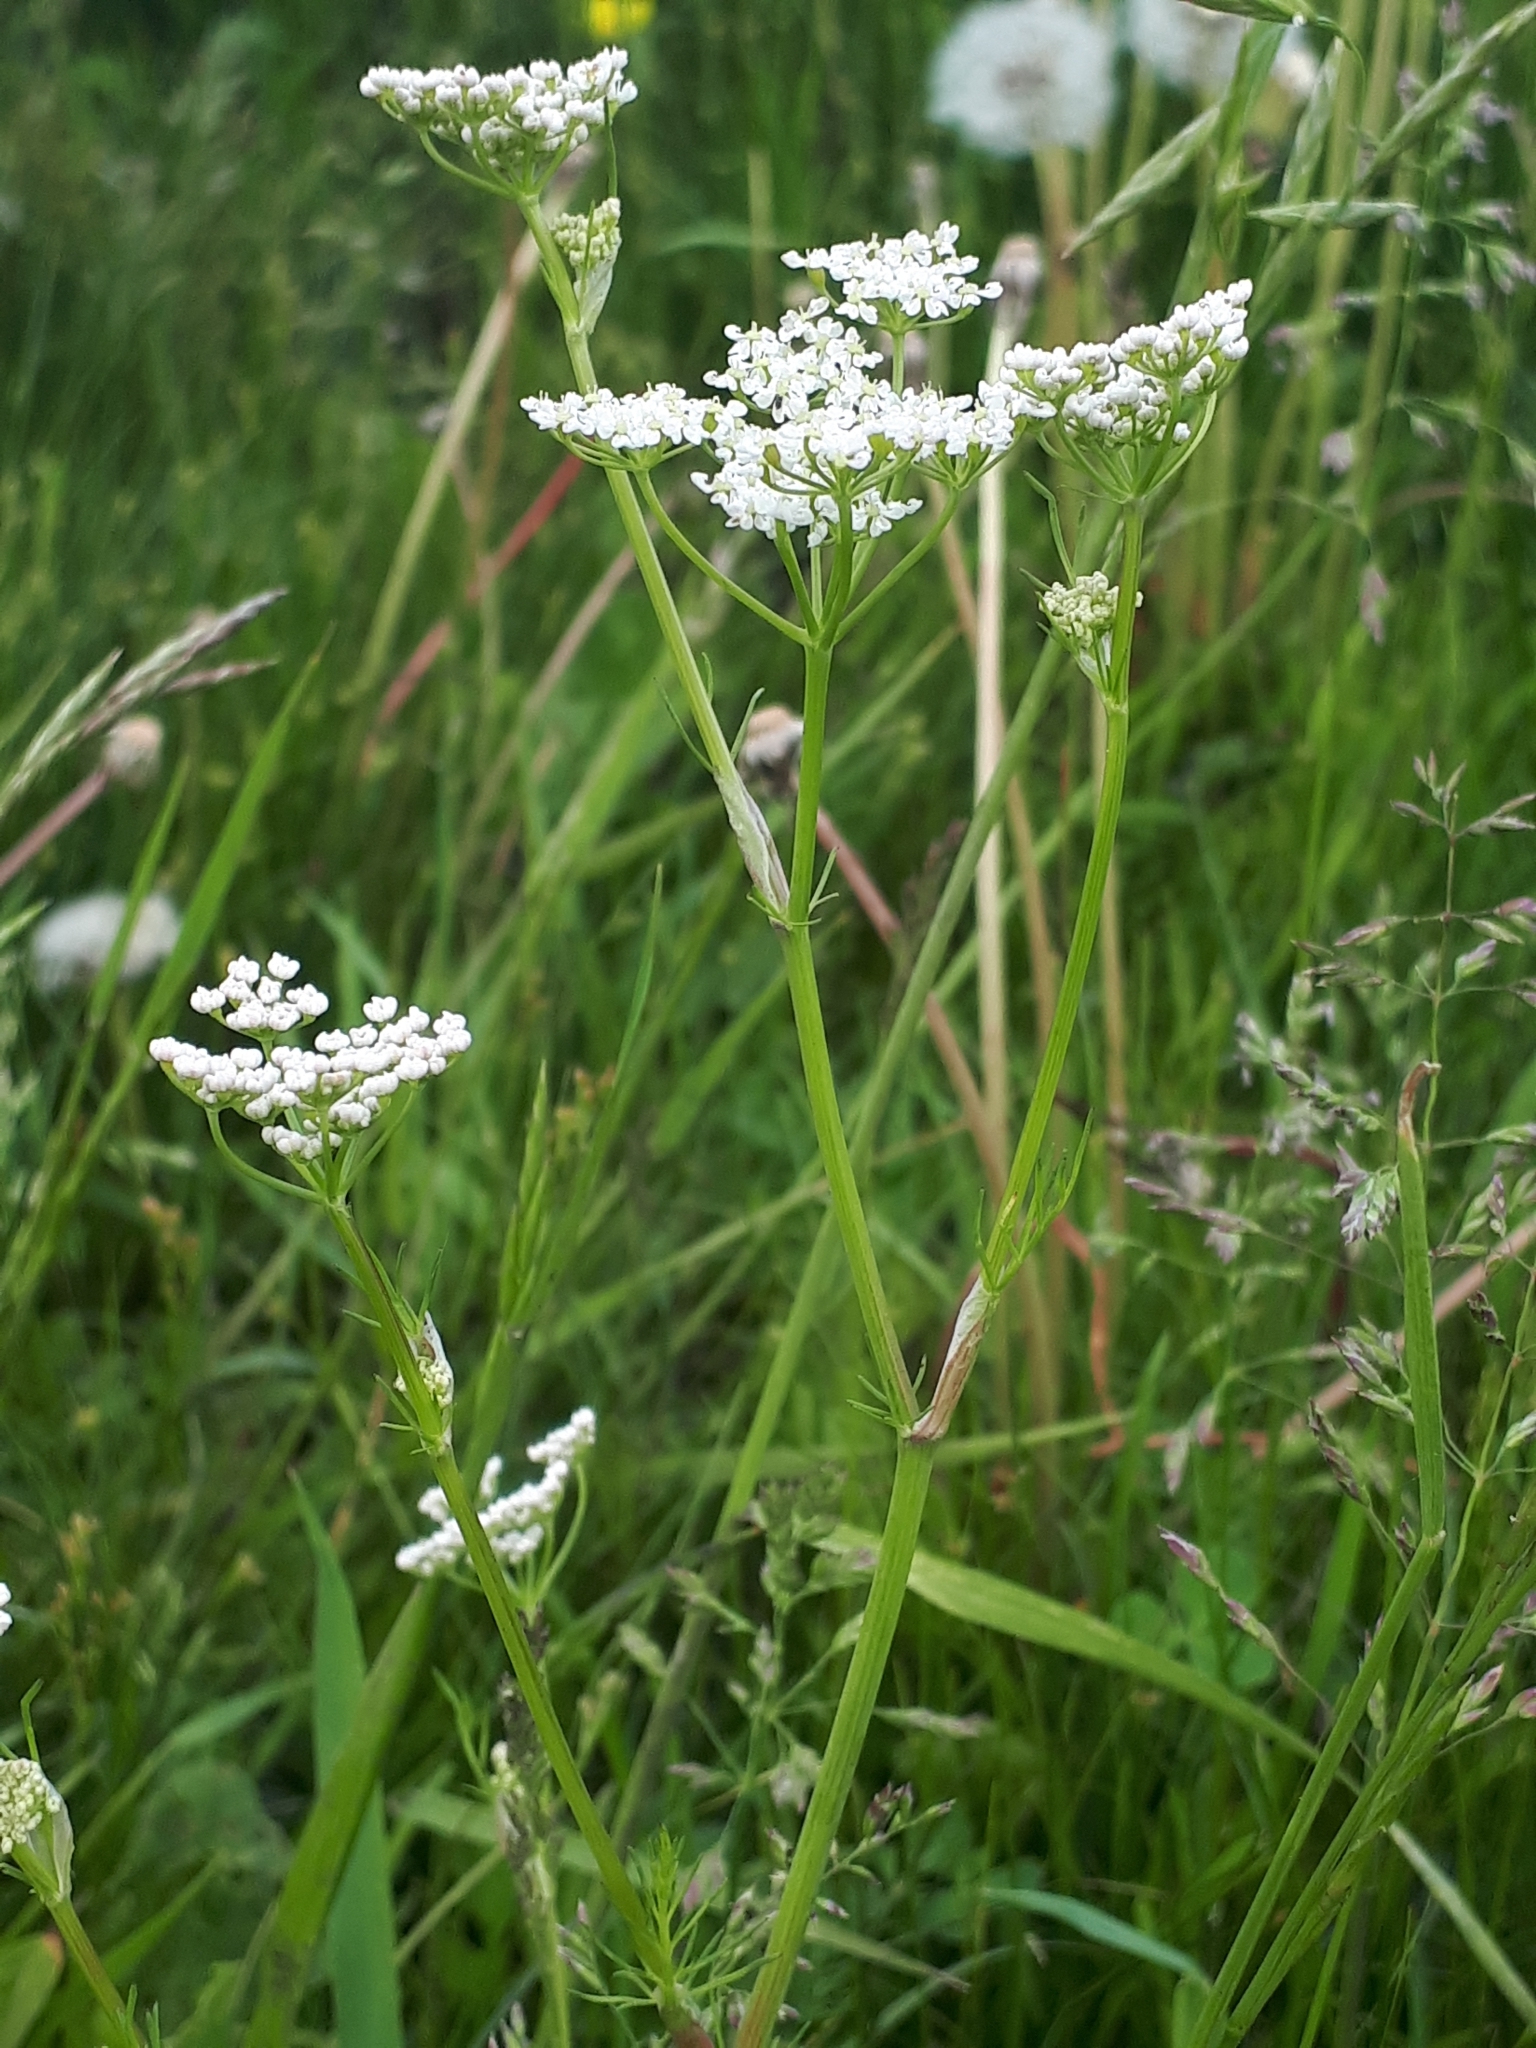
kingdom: Plantae
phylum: Tracheophyta
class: Magnoliopsida
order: Apiales
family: Apiaceae
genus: Carum
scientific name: Carum carvi
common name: Caraway
